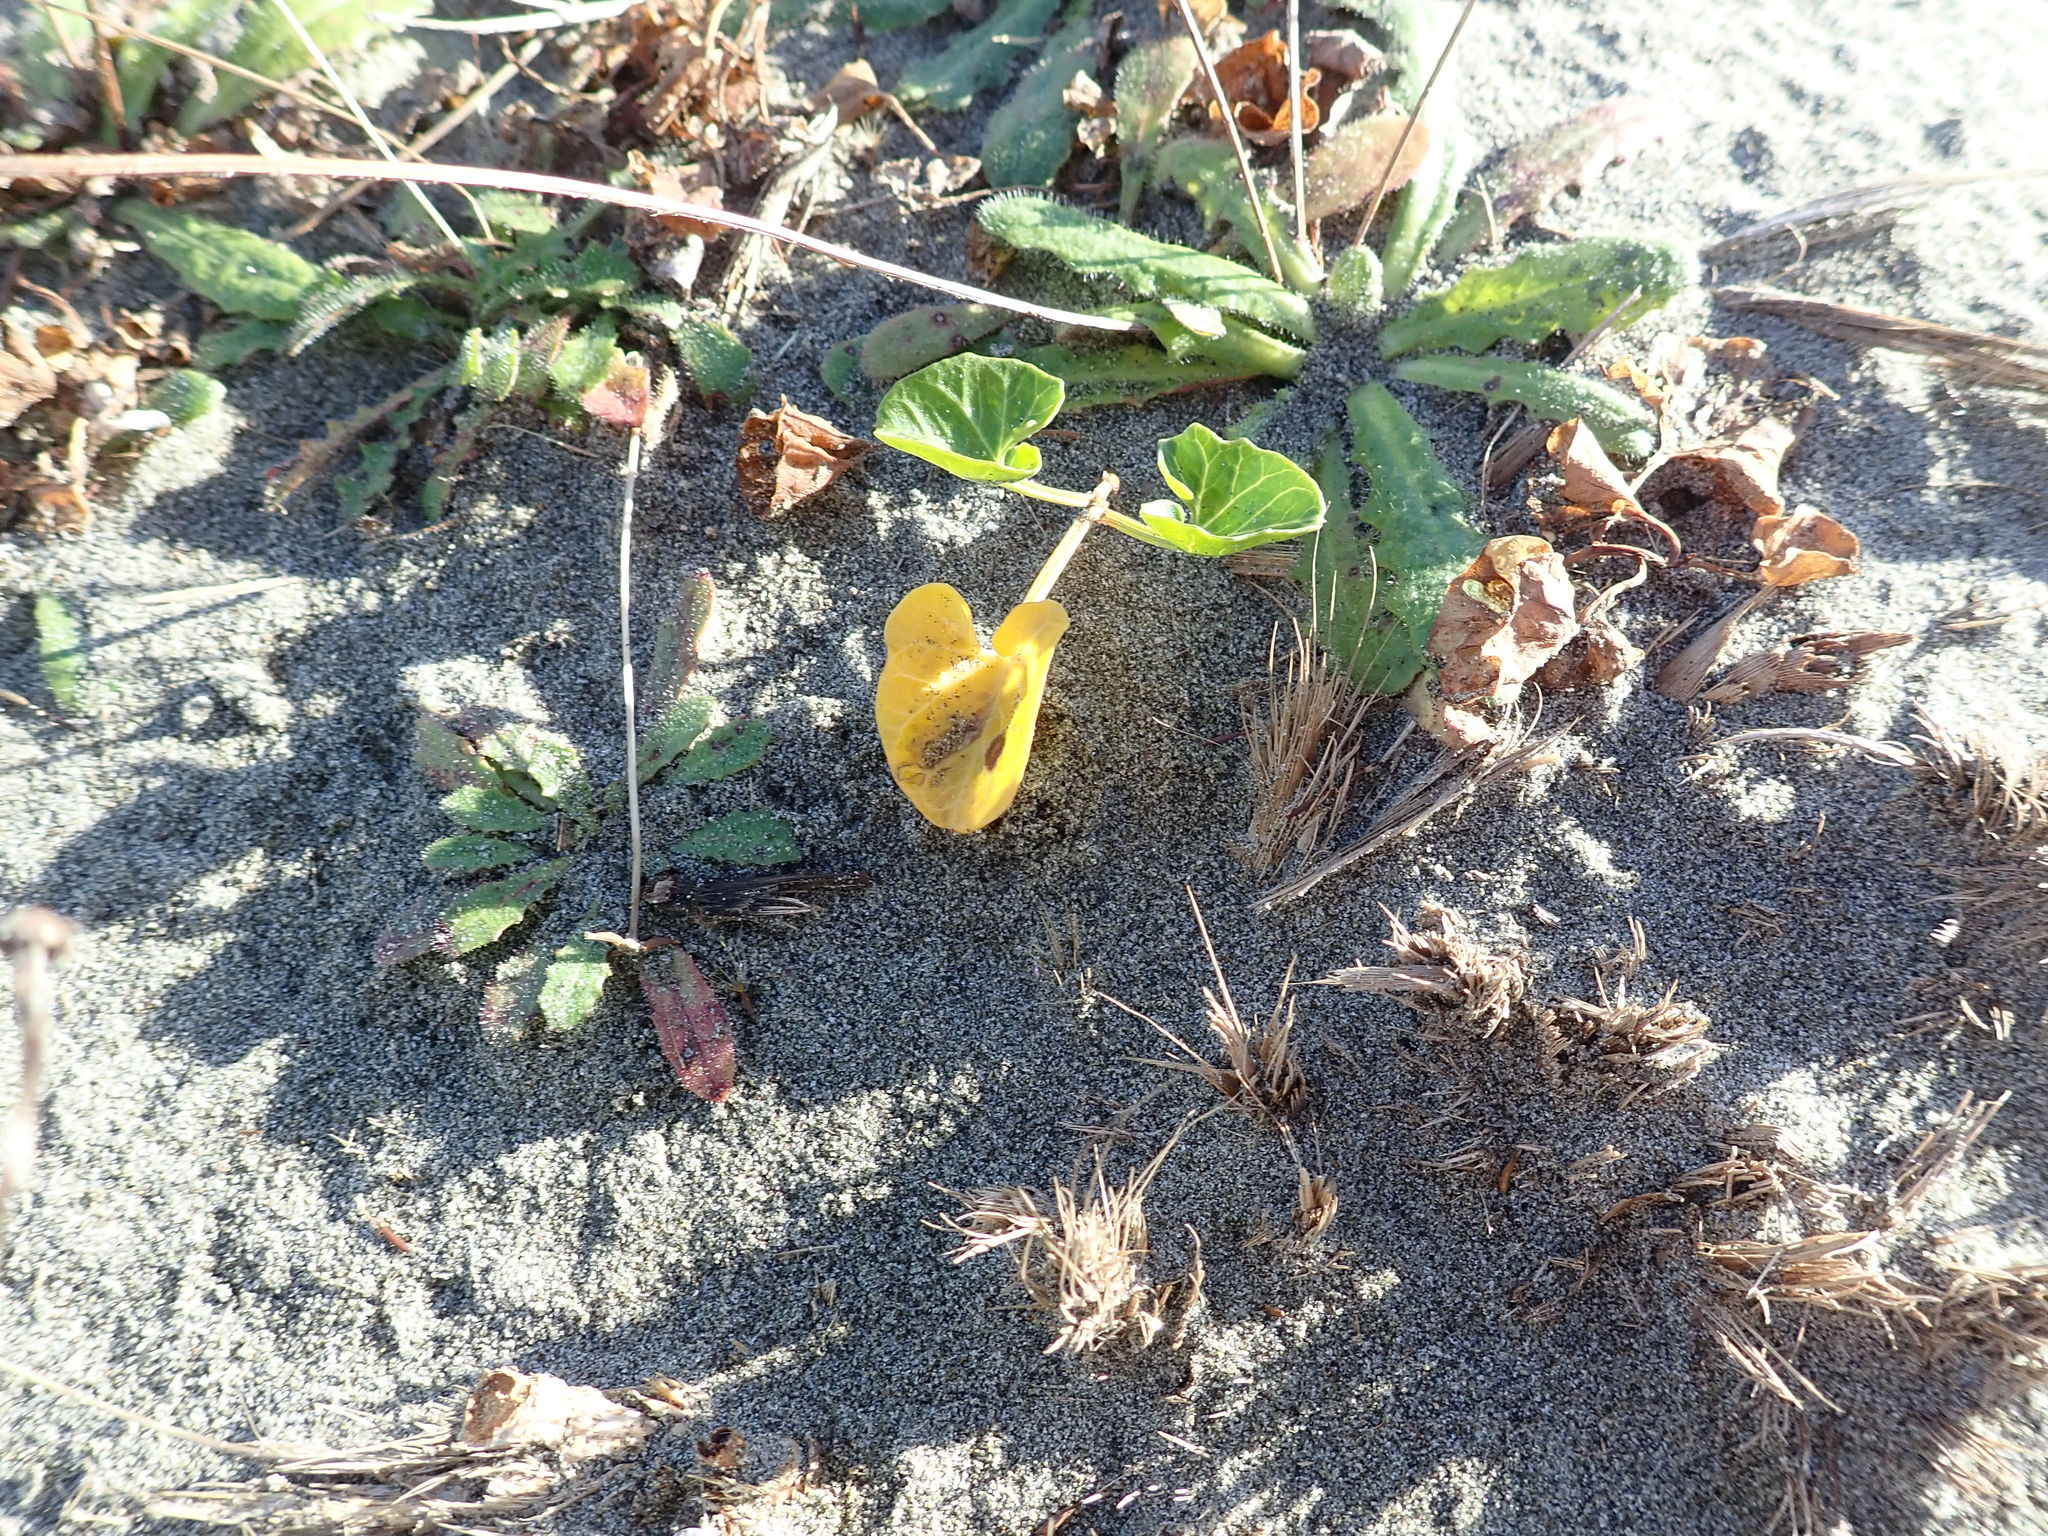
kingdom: Plantae
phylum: Tracheophyta
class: Magnoliopsida
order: Solanales
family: Convolvulaceae
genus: Calystegia
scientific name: Calystegia soldanella
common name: Sea bindweed
